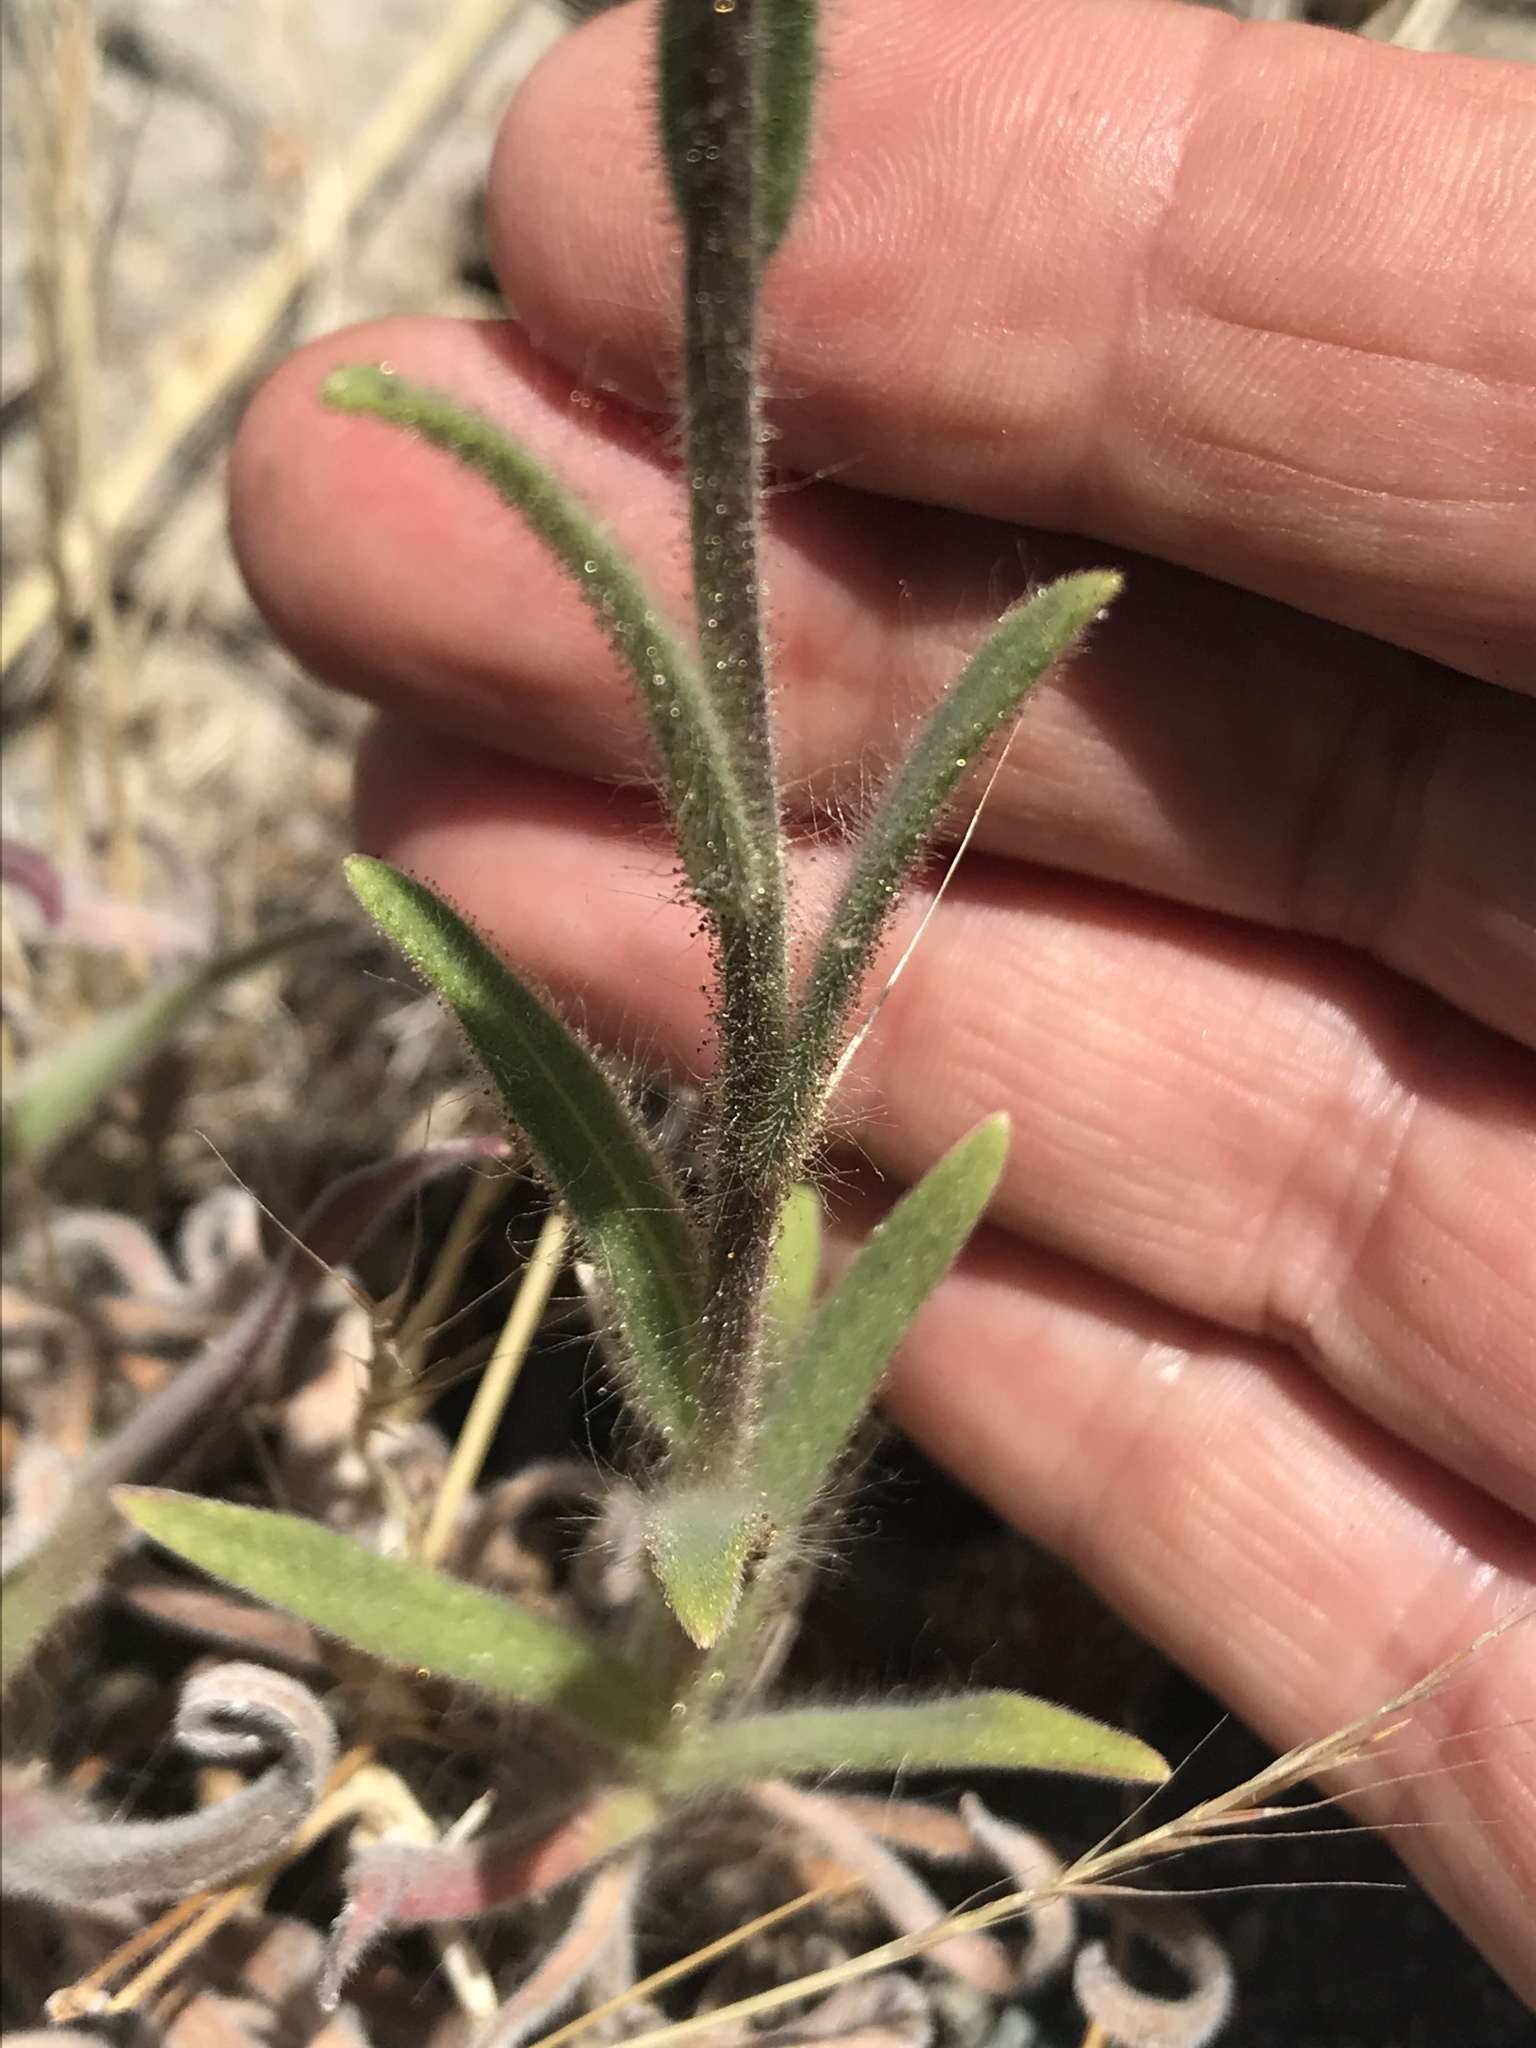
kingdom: Plantae
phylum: Tracheophyta
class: Magnoliopsida
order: Asterales
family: Asteraceae
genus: Madia
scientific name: Madia sativa
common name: Coast tarweed
